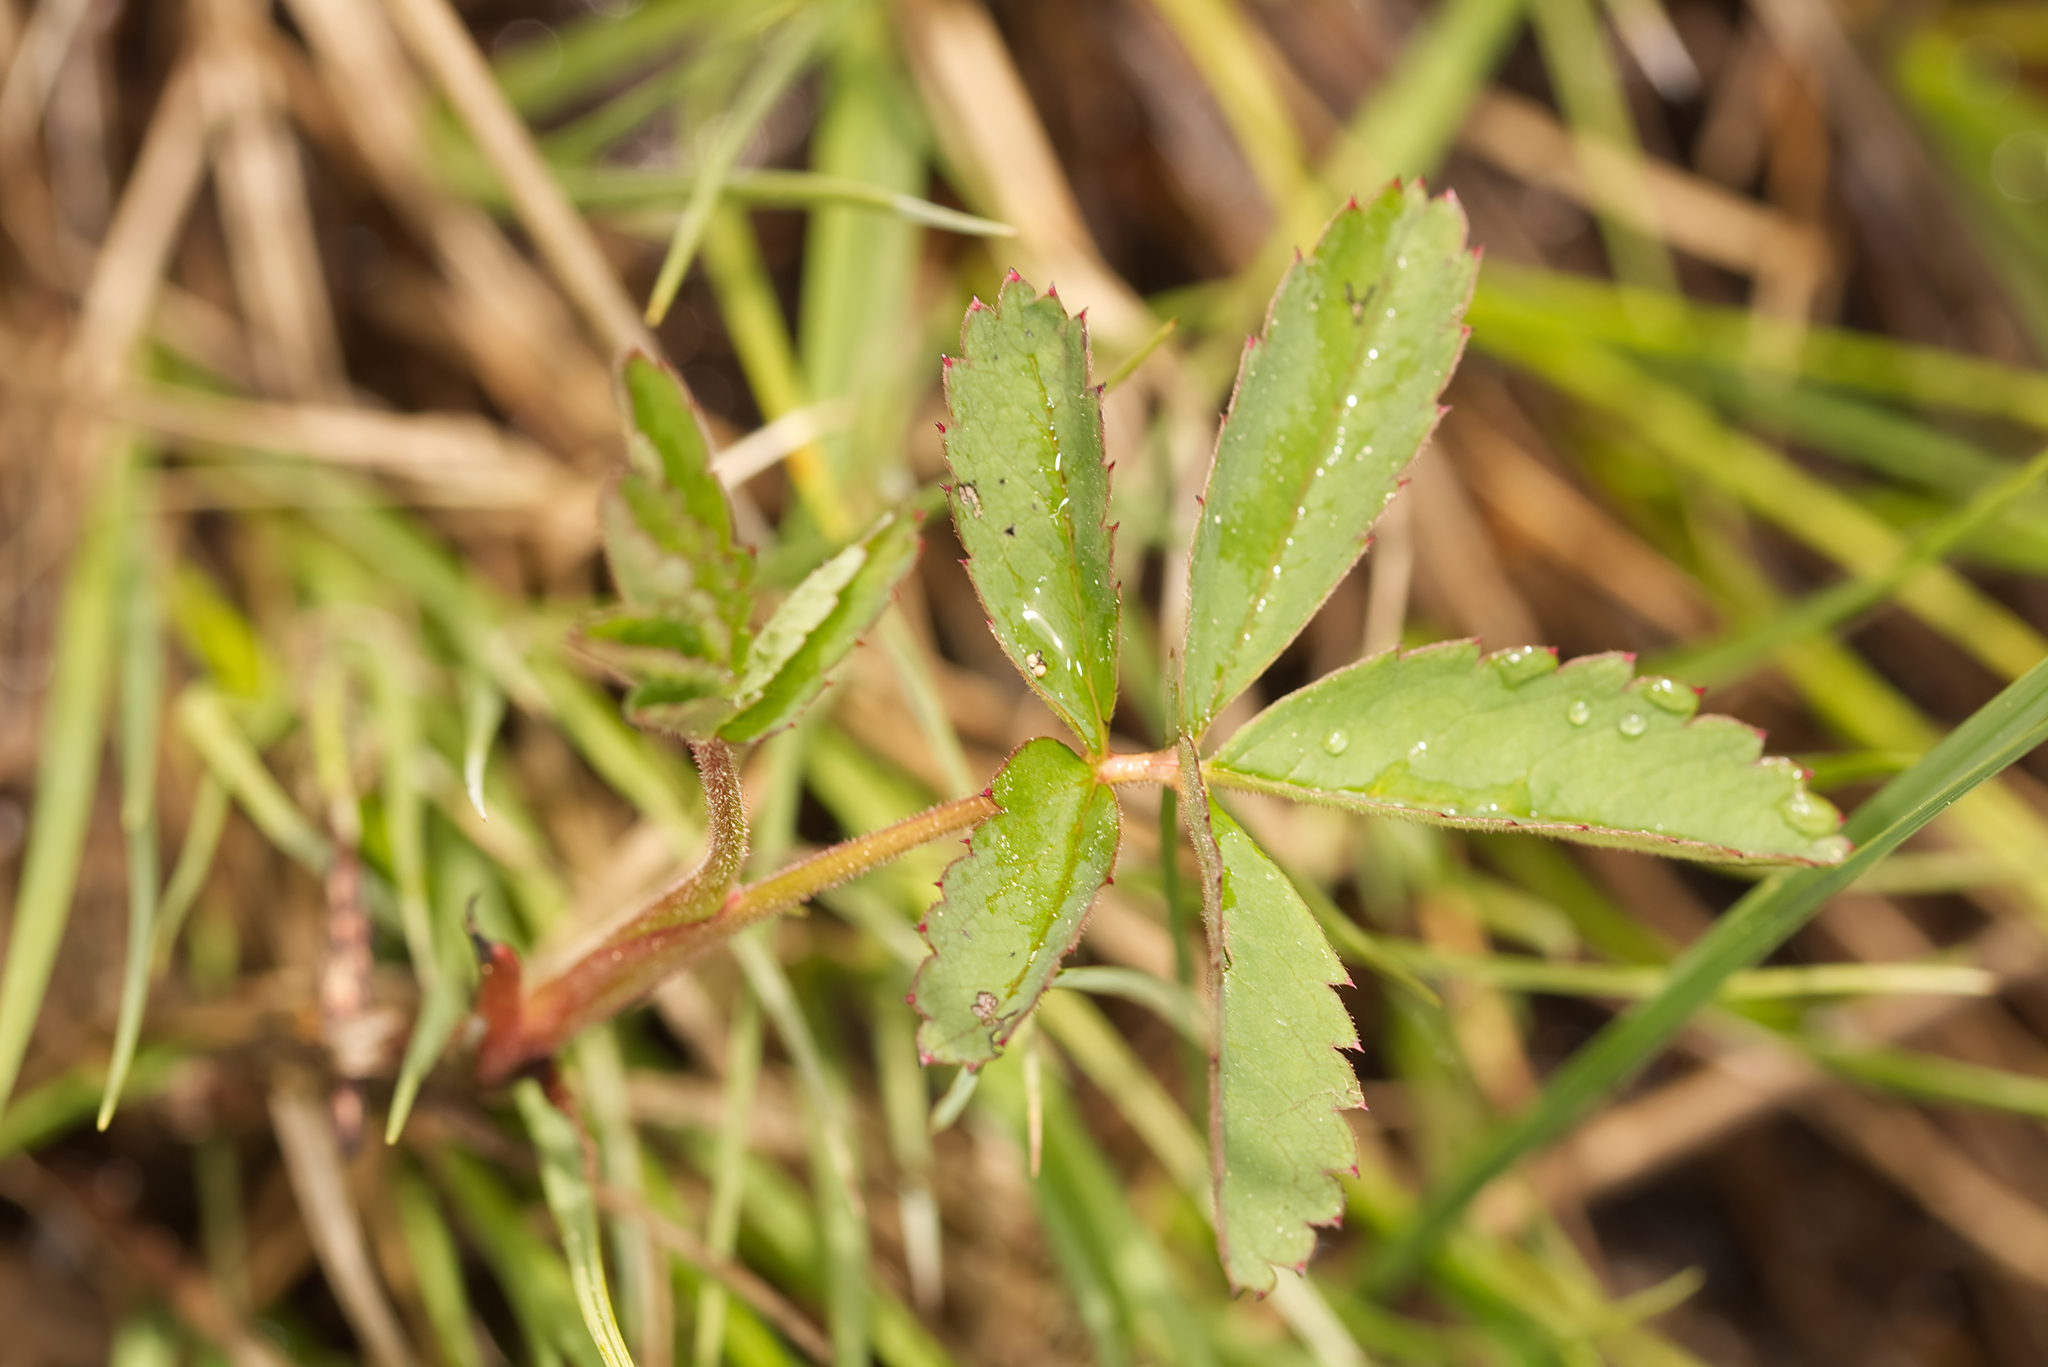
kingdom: Plantae
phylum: Tracheophyta
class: Magnoliopsida
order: Rosales
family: Rosaceae
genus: Comarum
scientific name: Comarum palustre
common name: Marsh cinquefoil
